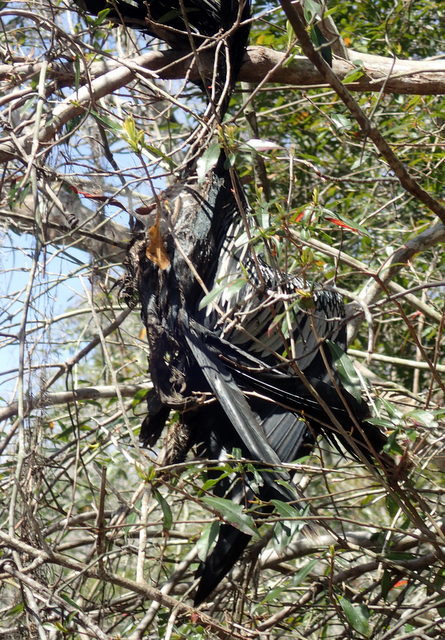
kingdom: Animalia
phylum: Chordata
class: Aves
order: Suliformes
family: Anhingidae
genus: Anhinga
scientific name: Anhinga anhinga
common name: Anhinga
